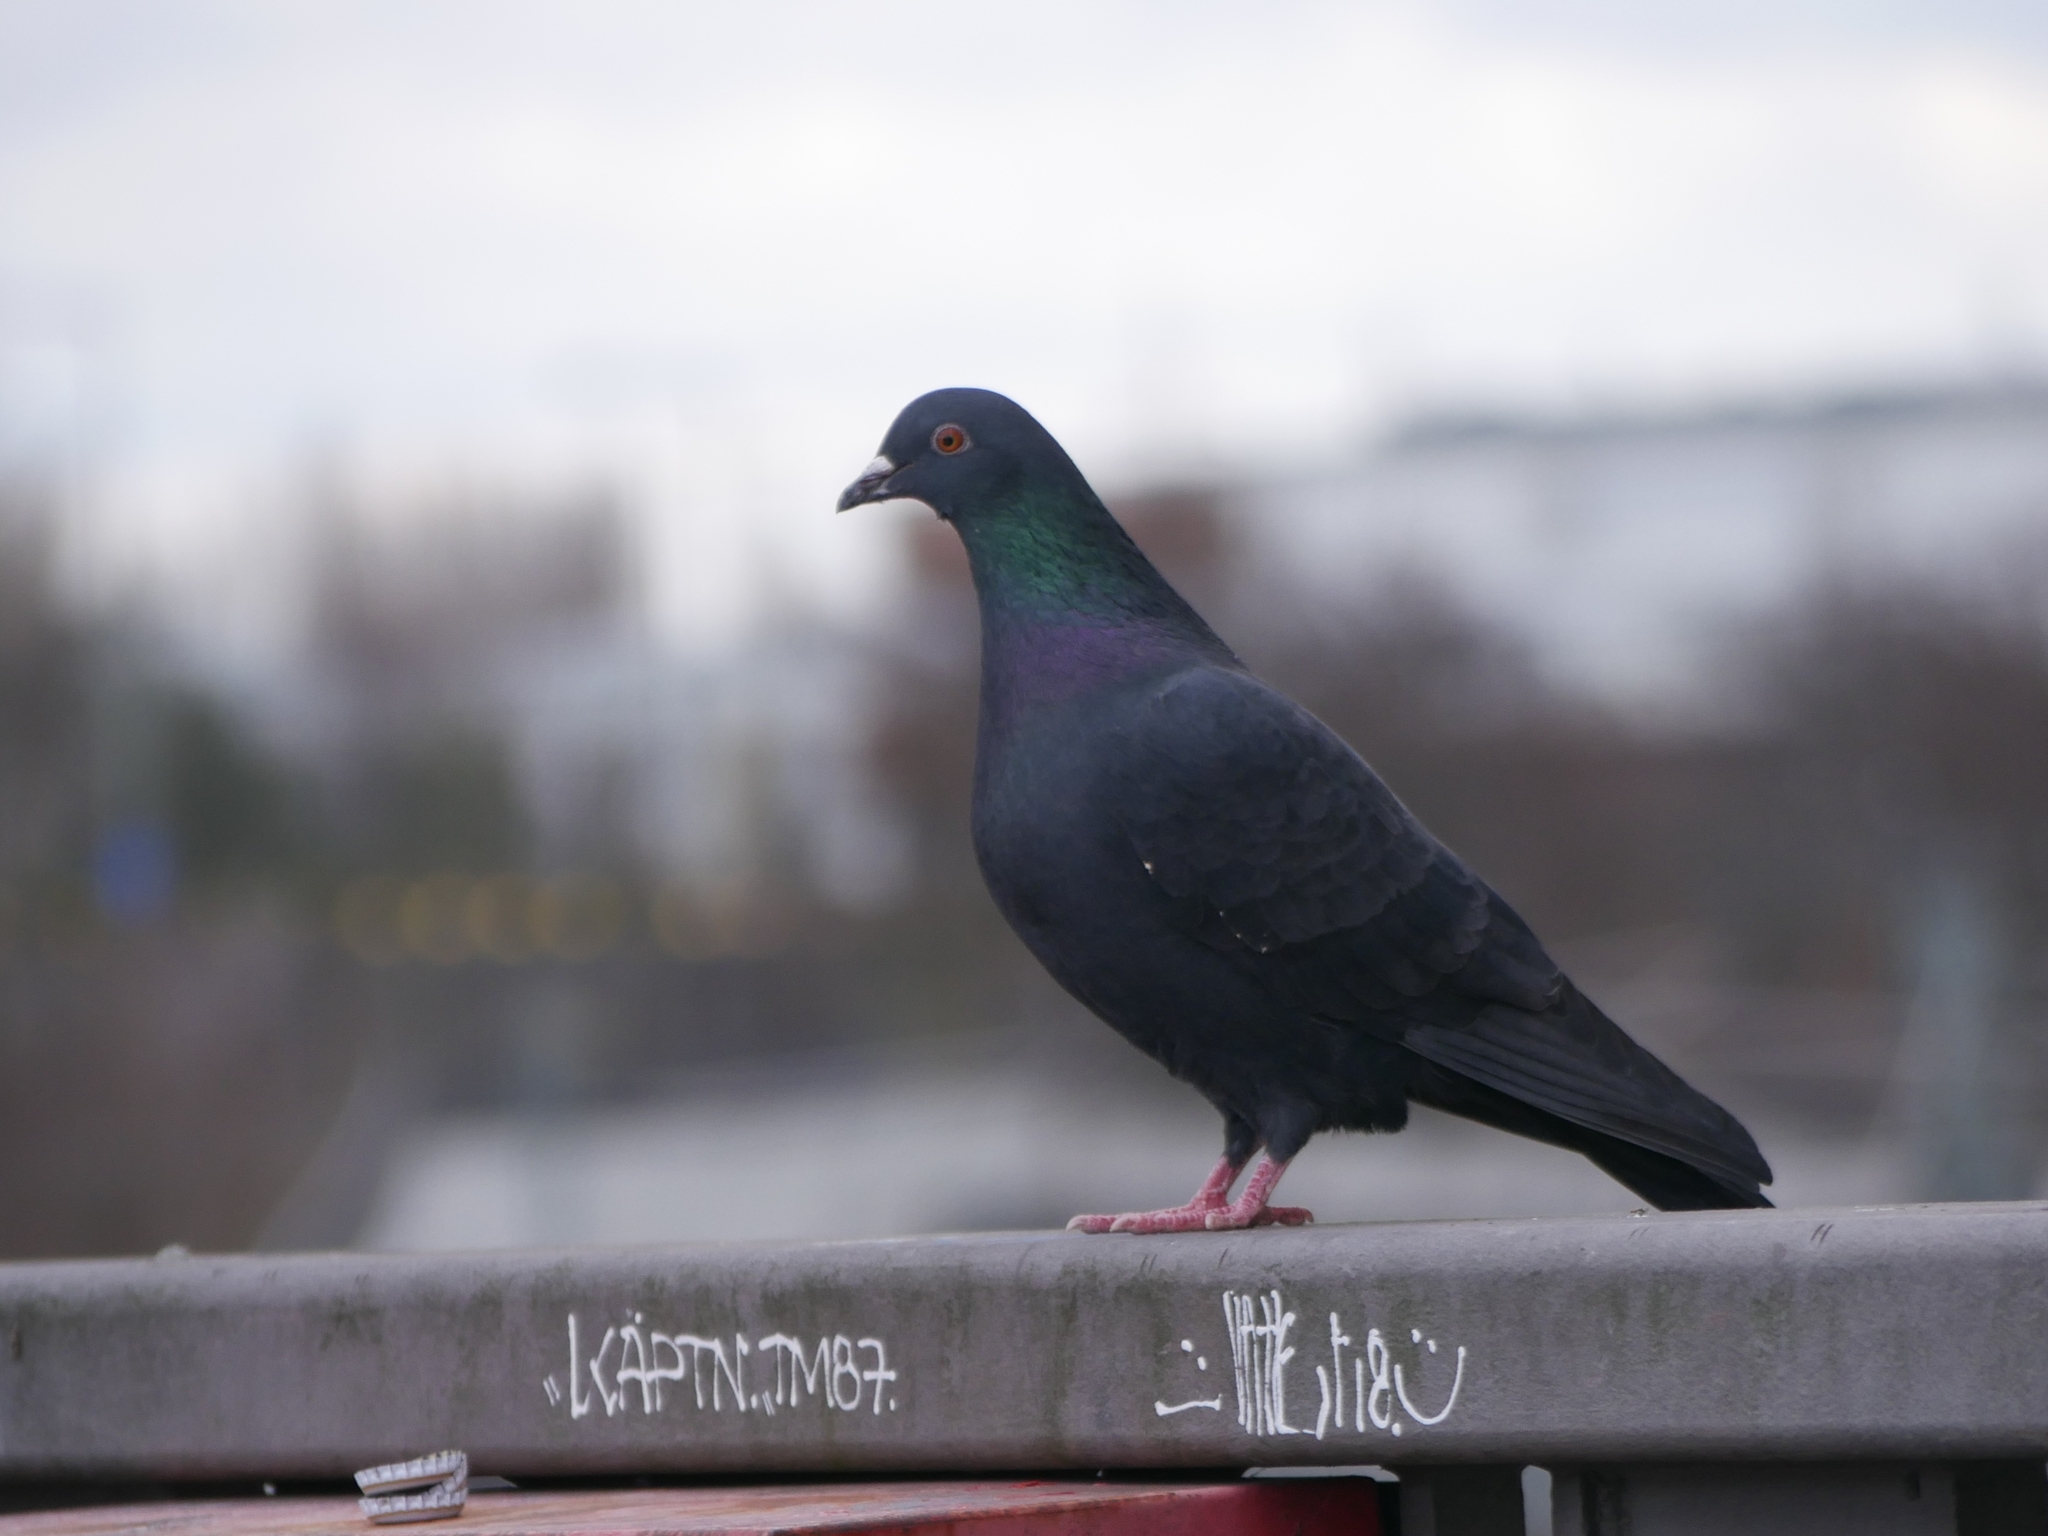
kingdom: Animalia
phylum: Chordata
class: Aves
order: Columbiformes
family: Columbidae
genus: Columba
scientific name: Columba livia
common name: Rock pigeon
